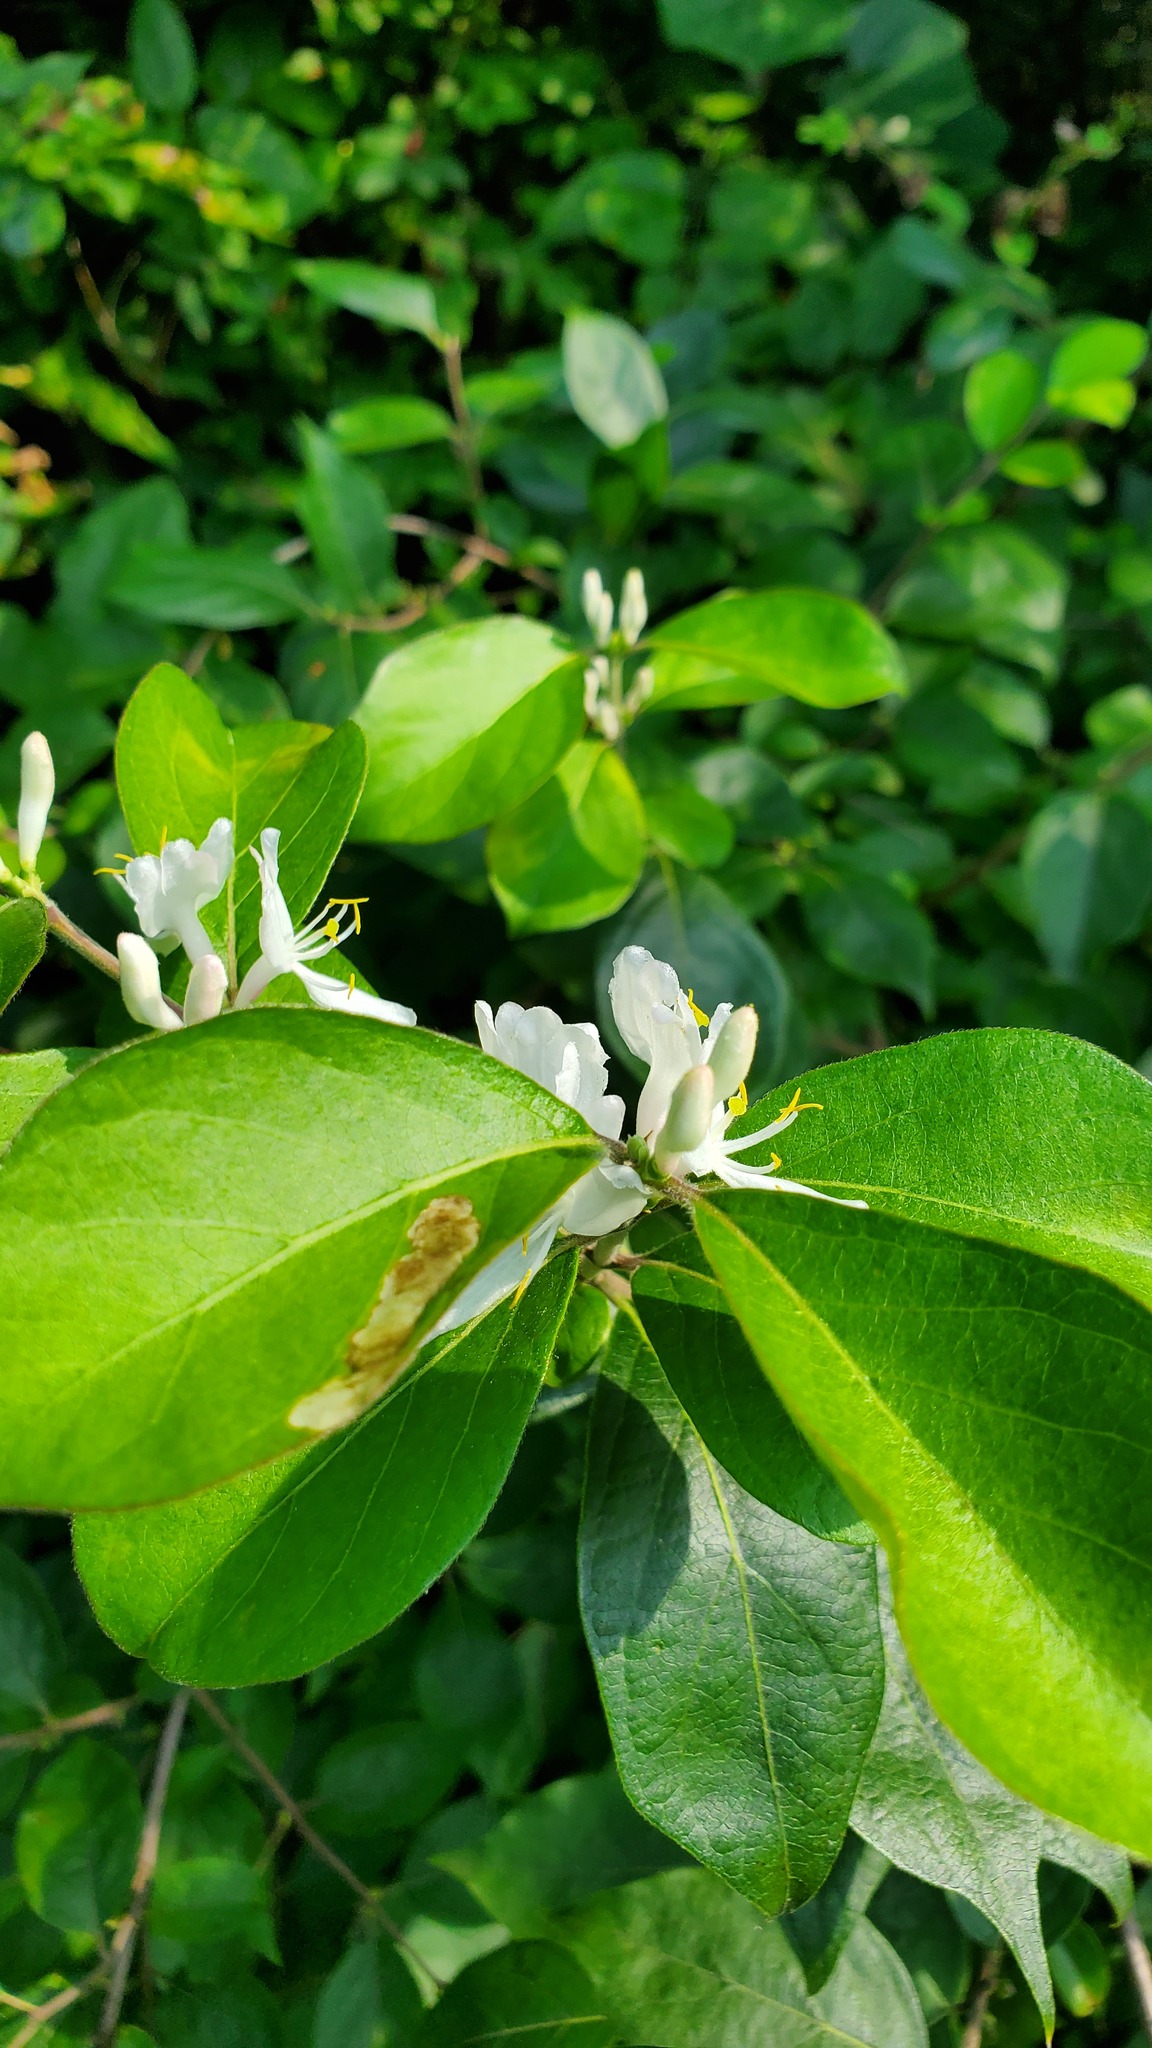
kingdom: Plantae
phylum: Tracheophyta
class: Magnoliopsida
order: Dipsacales
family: Caprifoliaceae
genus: Lonicera
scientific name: Lonicera maackii
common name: Amur honeysuckle
